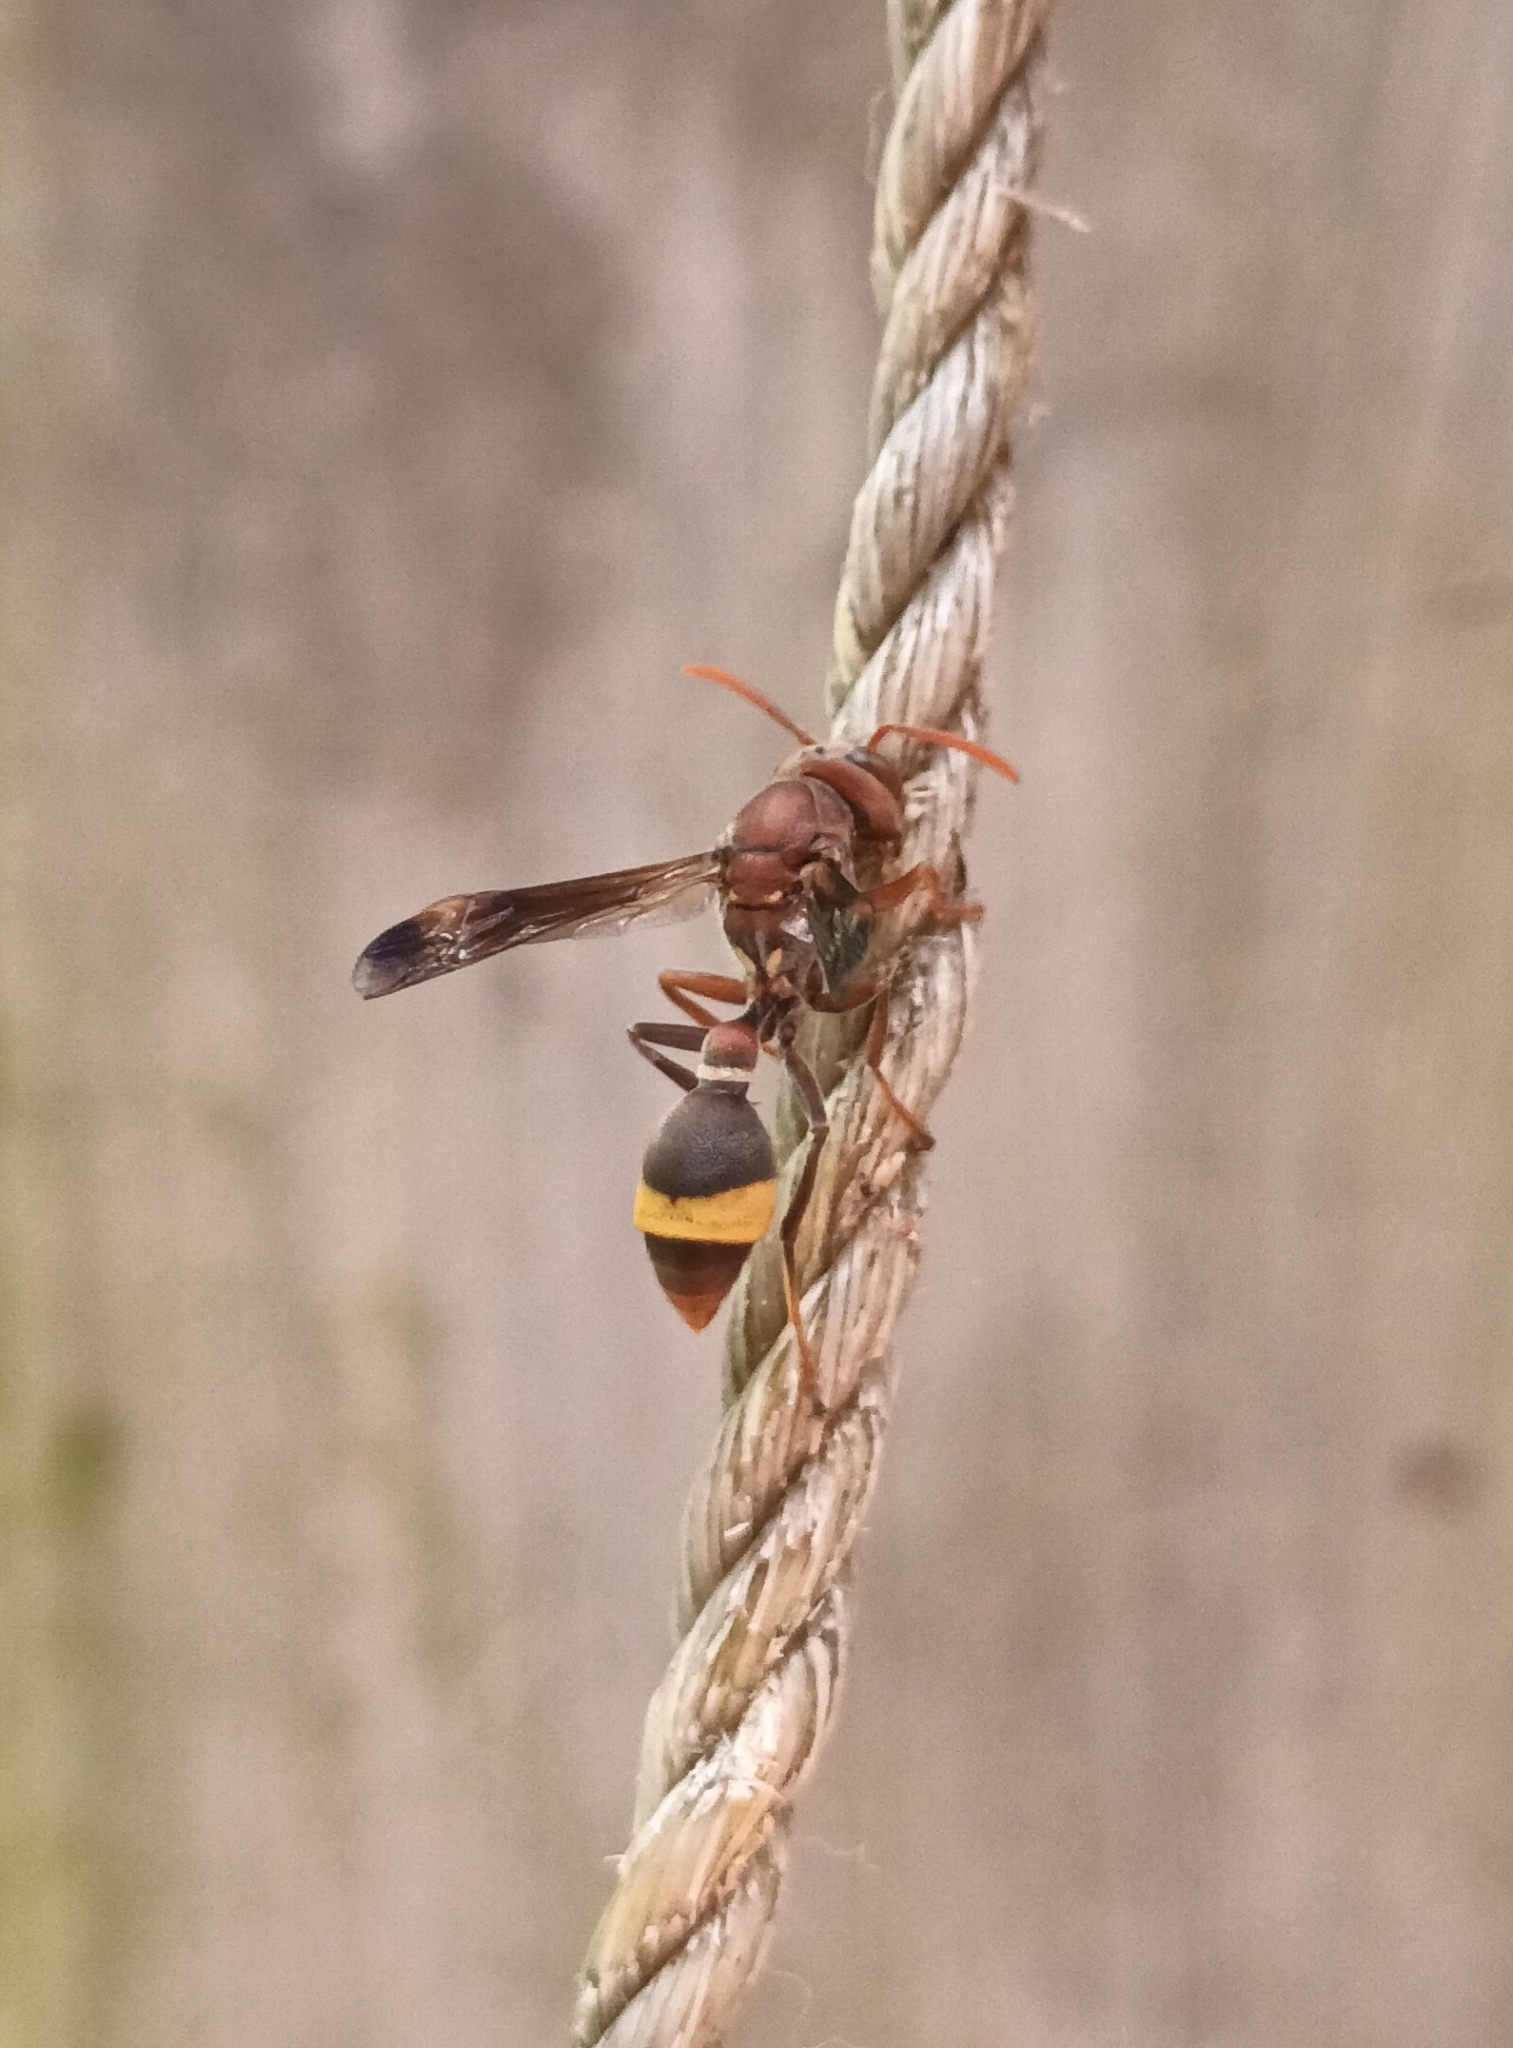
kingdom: Animalia
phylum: Arthropoda
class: Insecta
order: Hymenoptera
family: Vespidae
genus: Ropalidia
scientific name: Ropalidia
